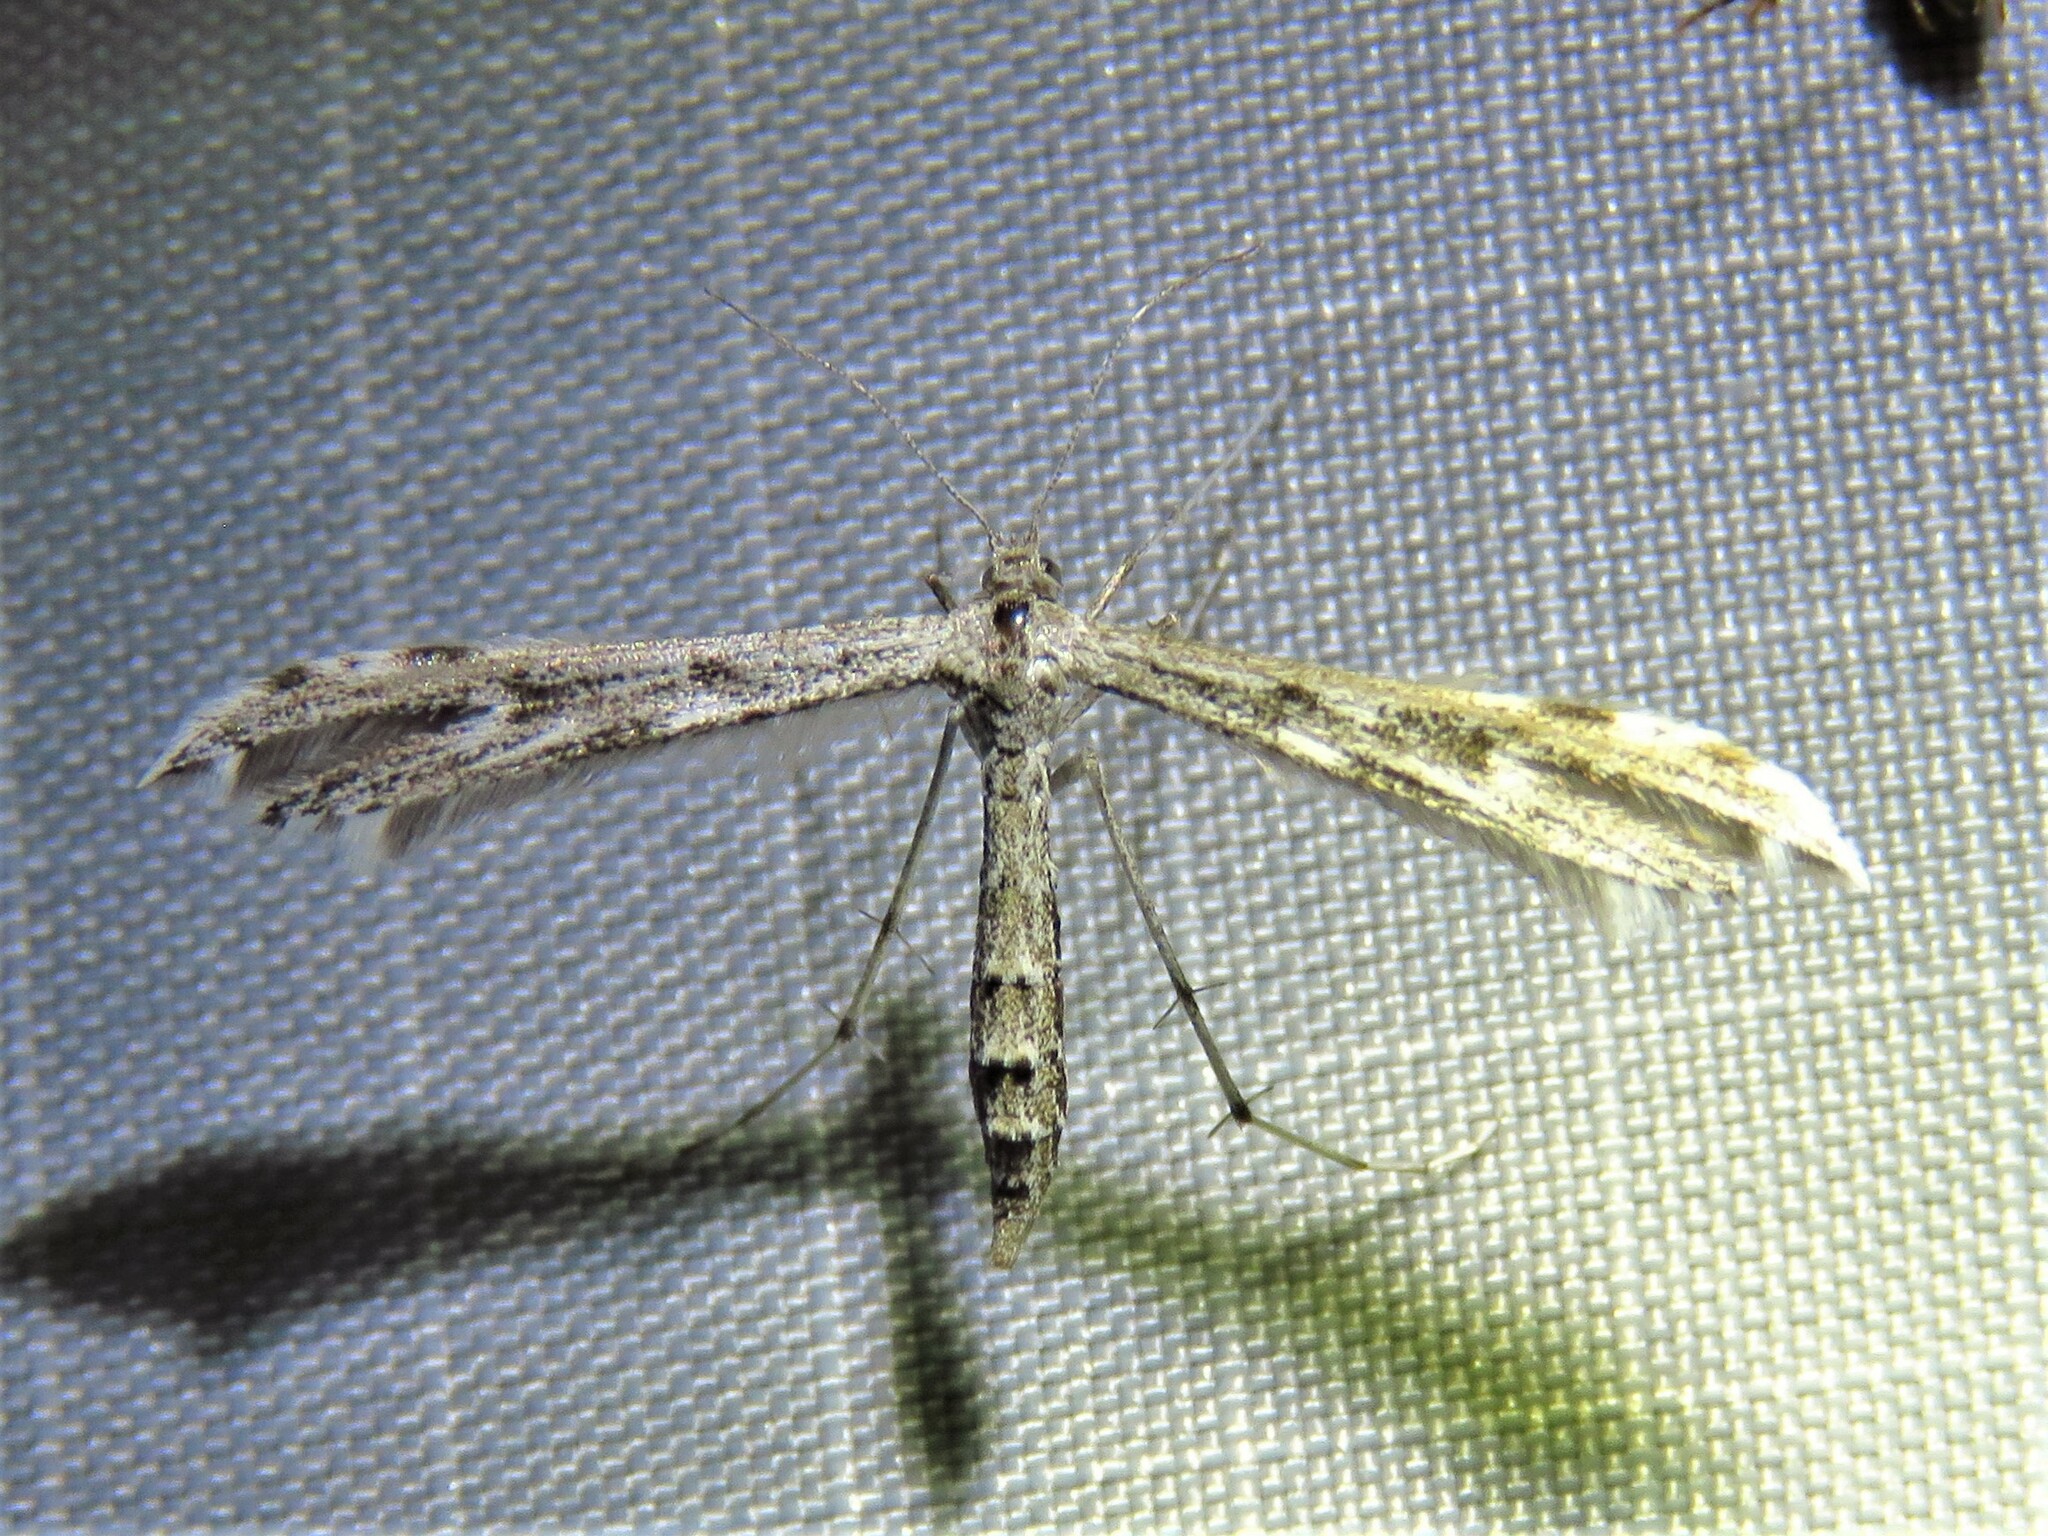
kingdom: Animalia
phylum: Arthropoda
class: Insecta
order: Lepidoptera
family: Pterophoridae
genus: Hellinsia
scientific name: Hellinsia inquinatus
